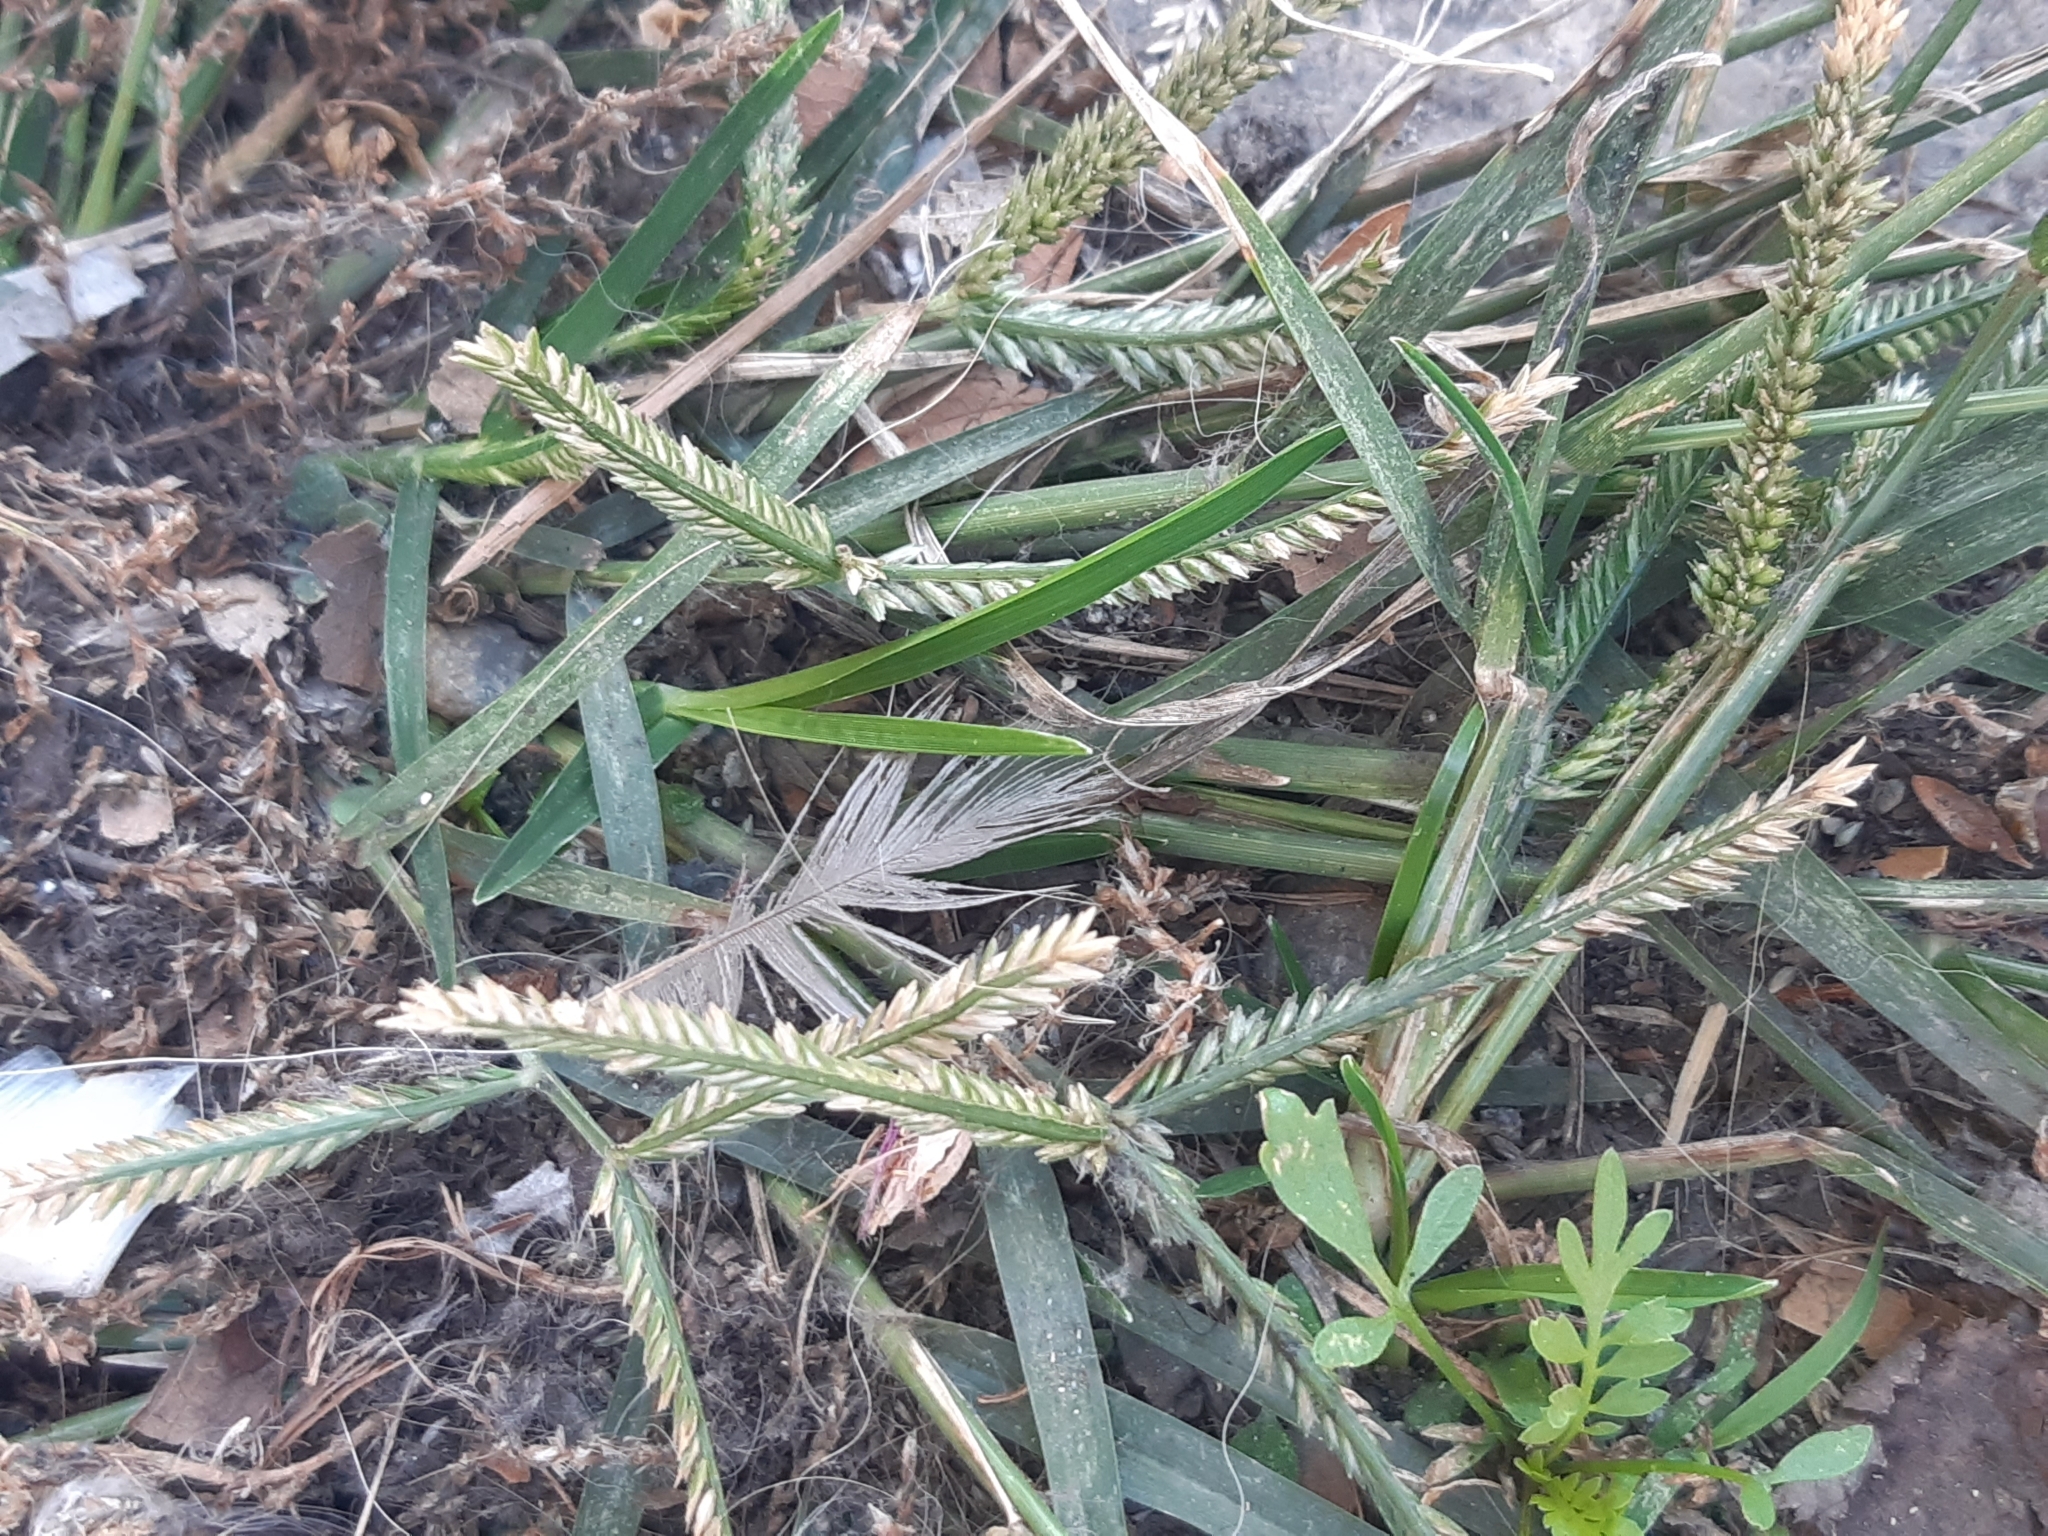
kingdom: Plantae
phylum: Tracheophyta
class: Liliopsida
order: Poales
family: Poaceae
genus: Eleusine
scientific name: Eleusine indica
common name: Yard-grass
